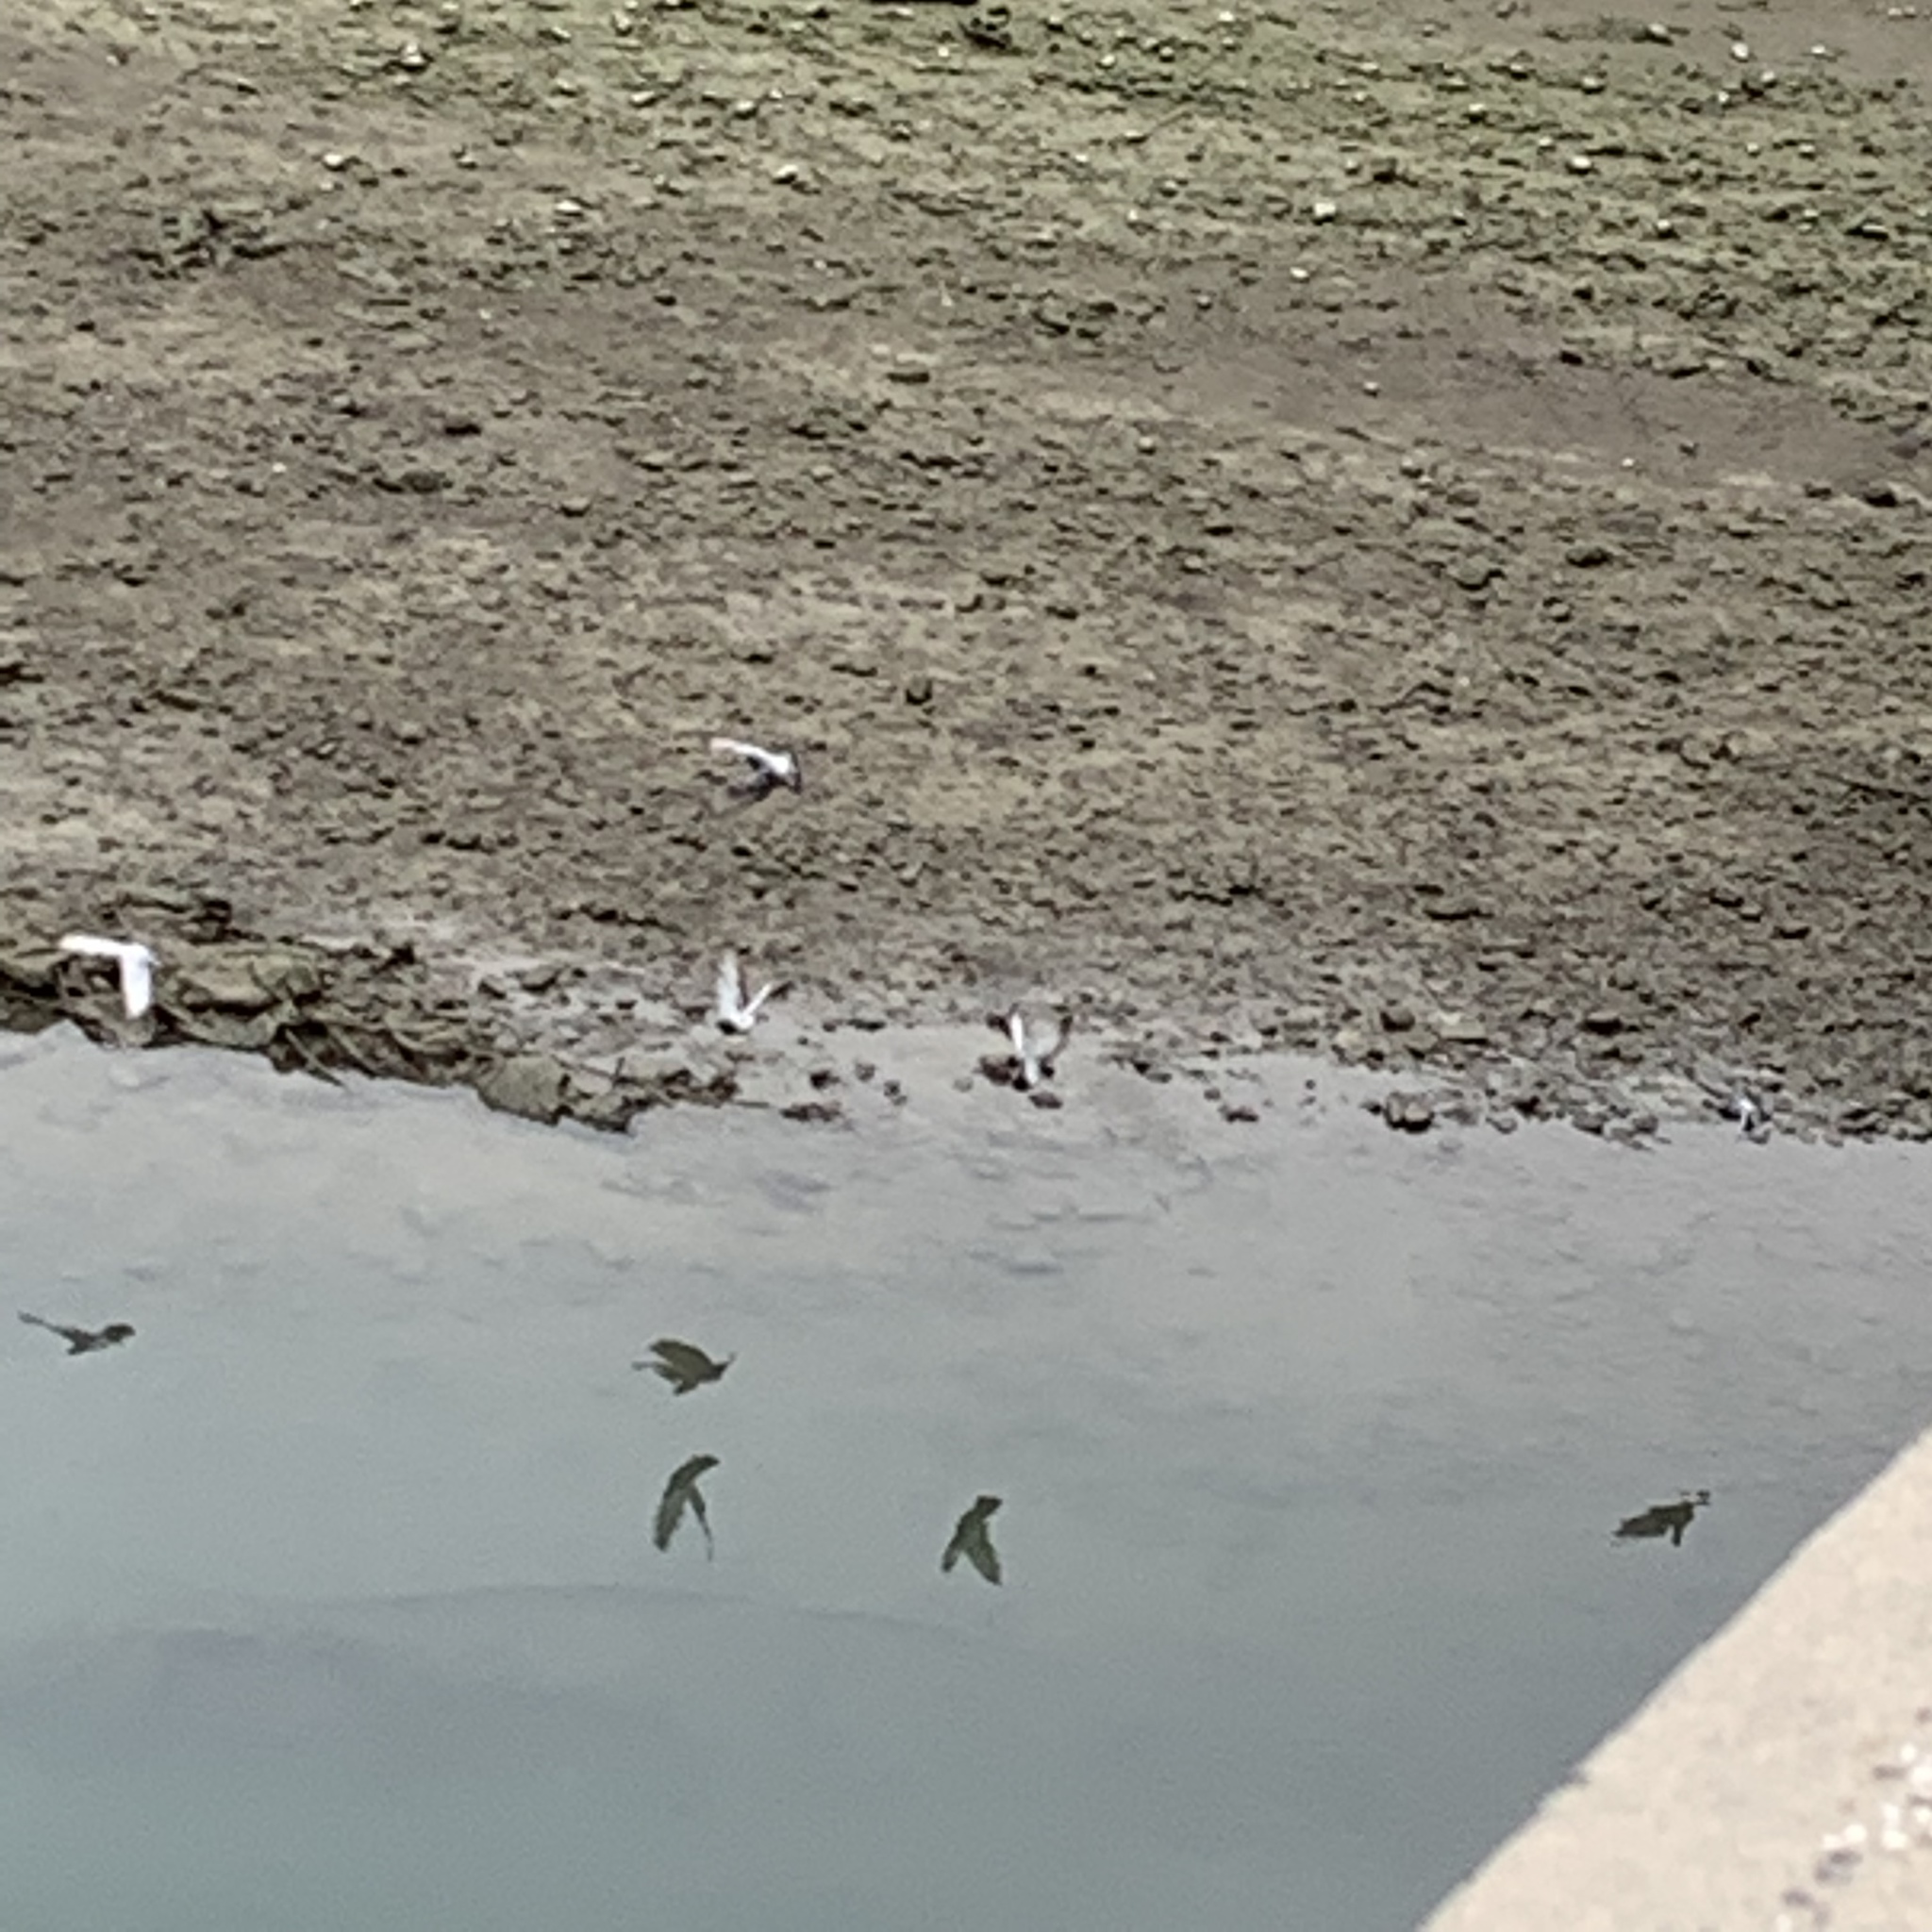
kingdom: Animalia
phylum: Chordata
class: Aves
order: Columbiformes
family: Columbidae
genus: Columba
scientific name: Columba livia
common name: Rock pigeon
